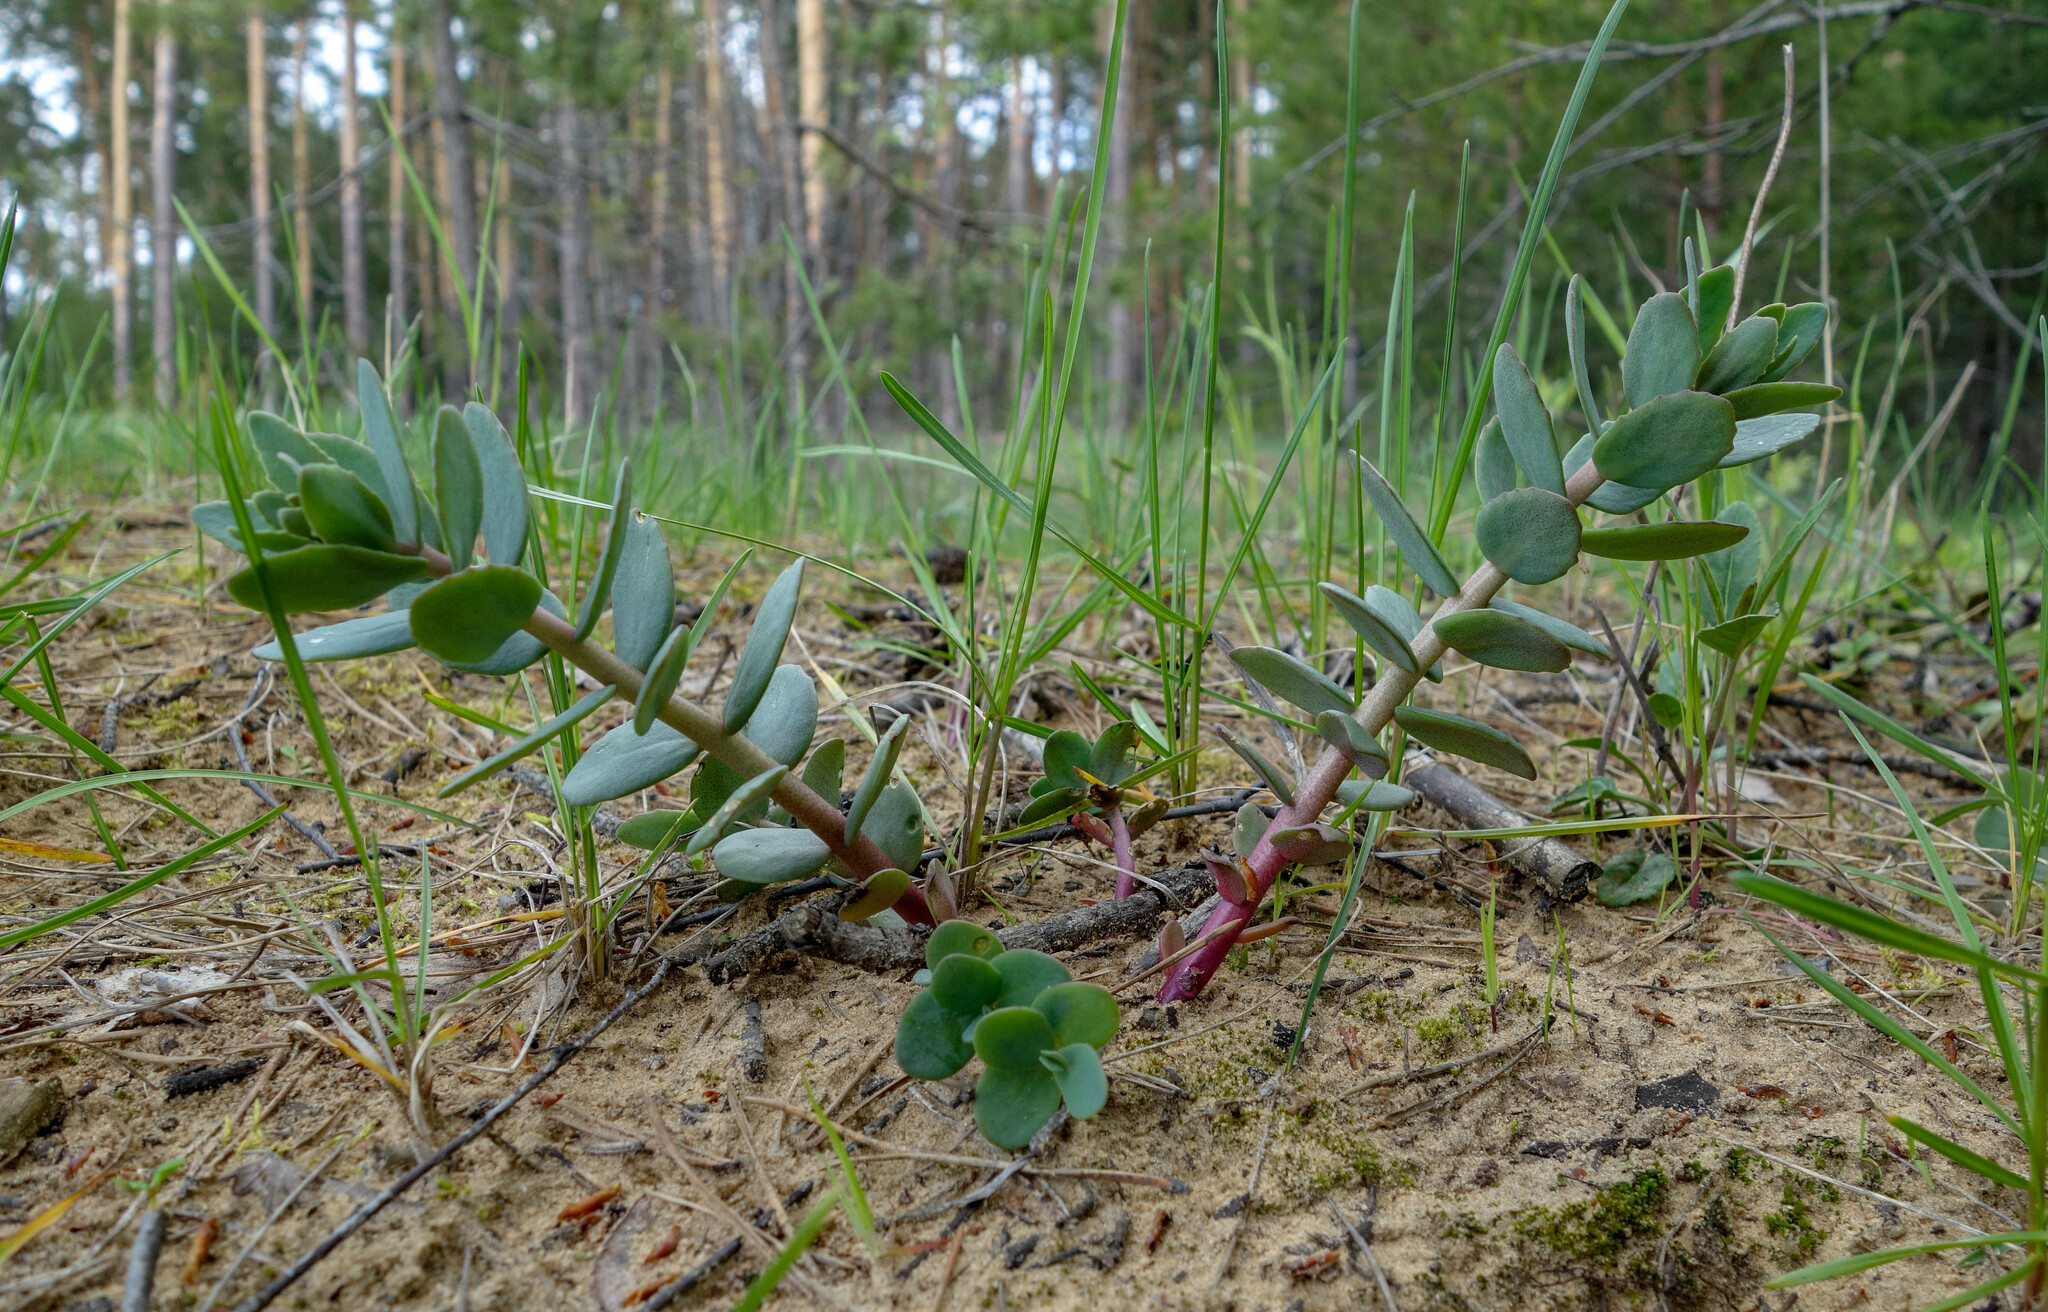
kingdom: Plantae
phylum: Tracheophyta
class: Magnoliopsida
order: Saxifragales
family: Crassulaceae
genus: Hylotelephium
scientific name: Hylotelephium maximum
